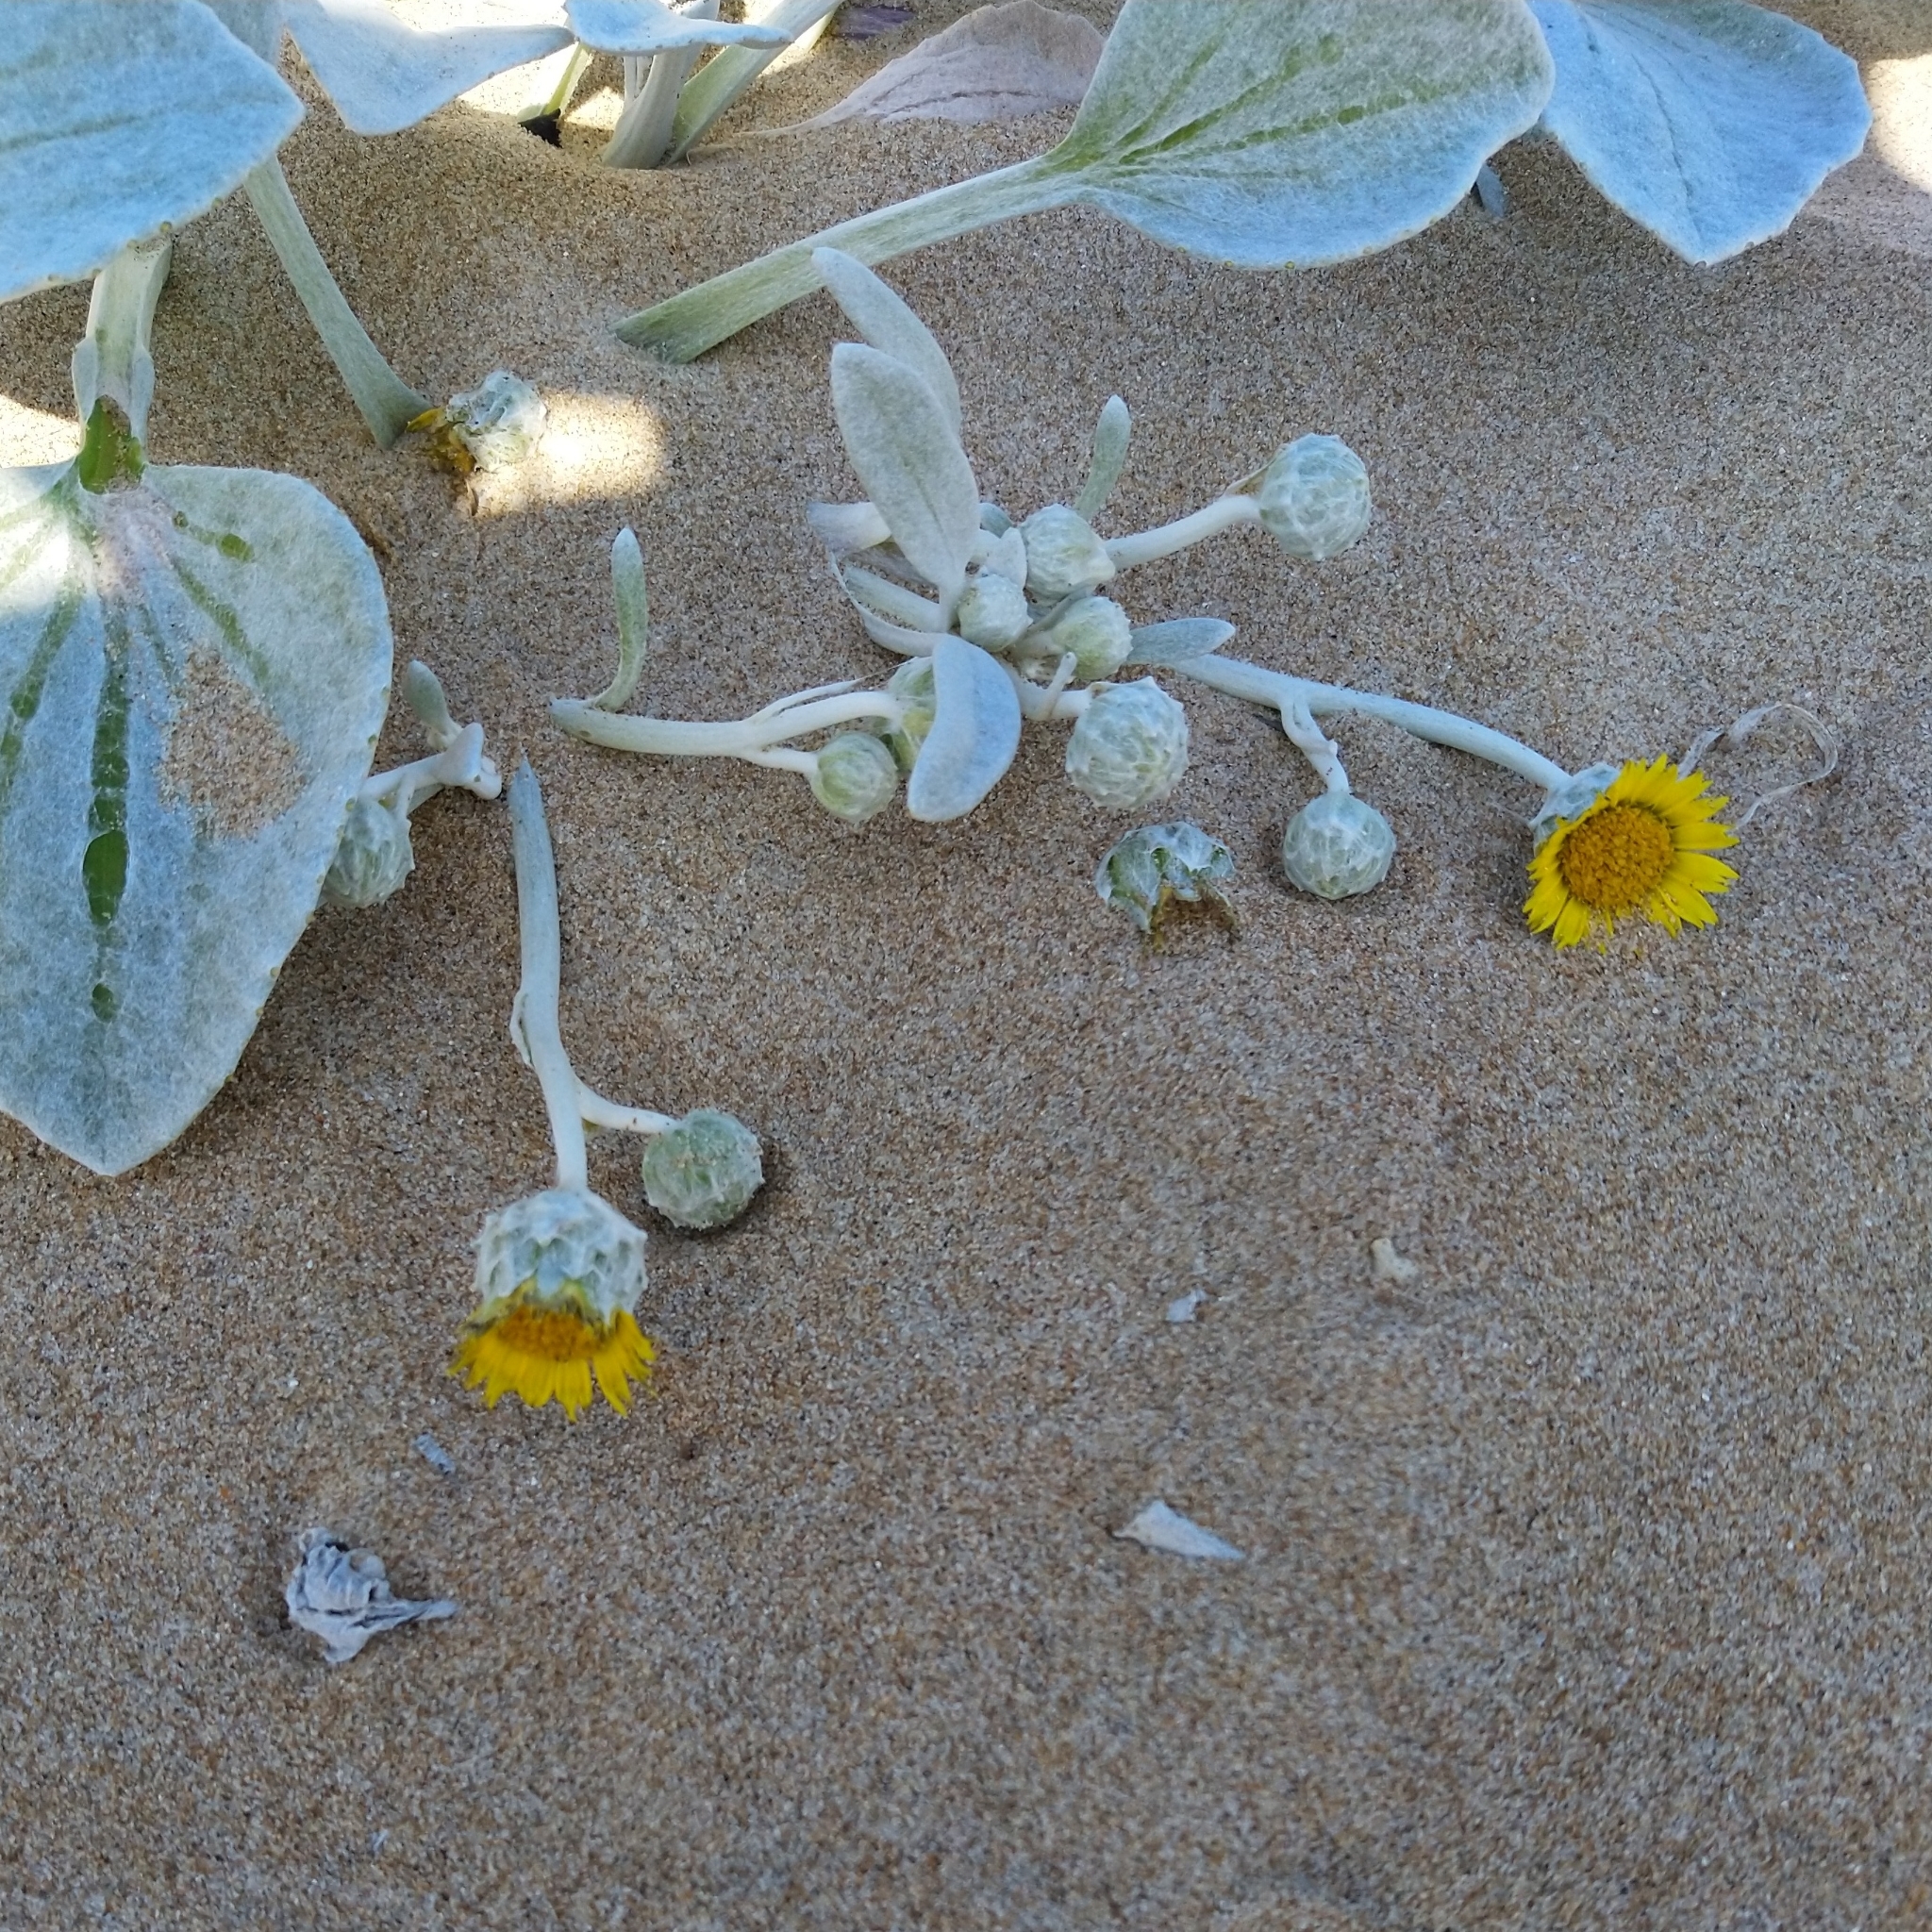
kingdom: Plantae
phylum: Tracheophyta
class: Magnoliopsida
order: Asterales
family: Asteraceae
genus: Arctotheca
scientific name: Arctotheca populifolia
